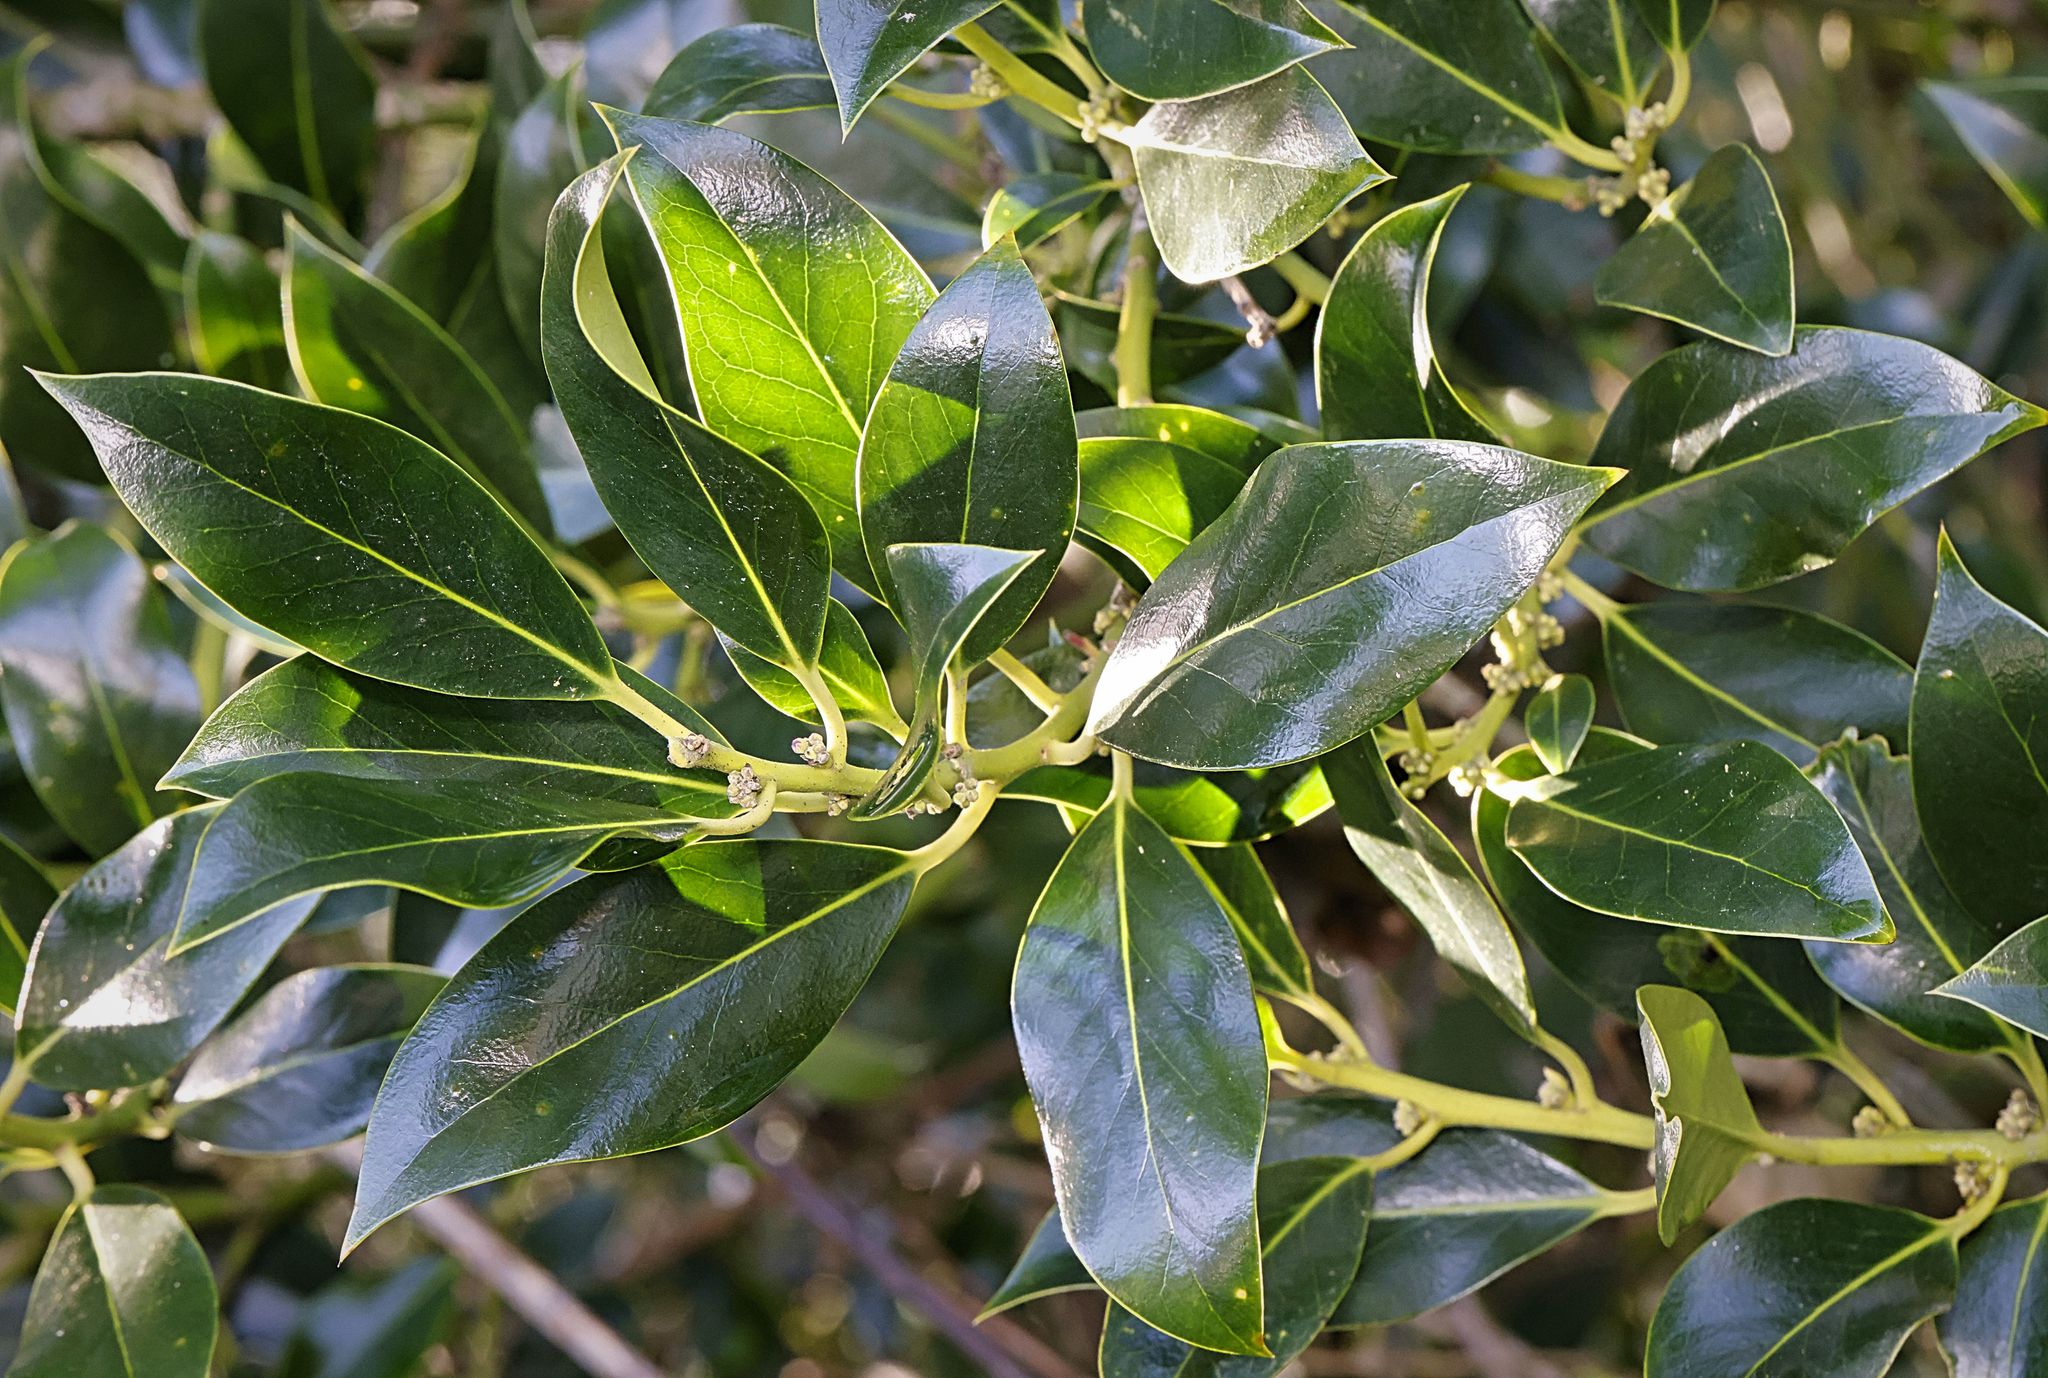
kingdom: Plantae
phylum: Tracheophyta
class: Magnoliopsida
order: Aquifoliales
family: Aquifoliaceae
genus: Ilex
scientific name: Ilex aquifolium
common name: English holly
